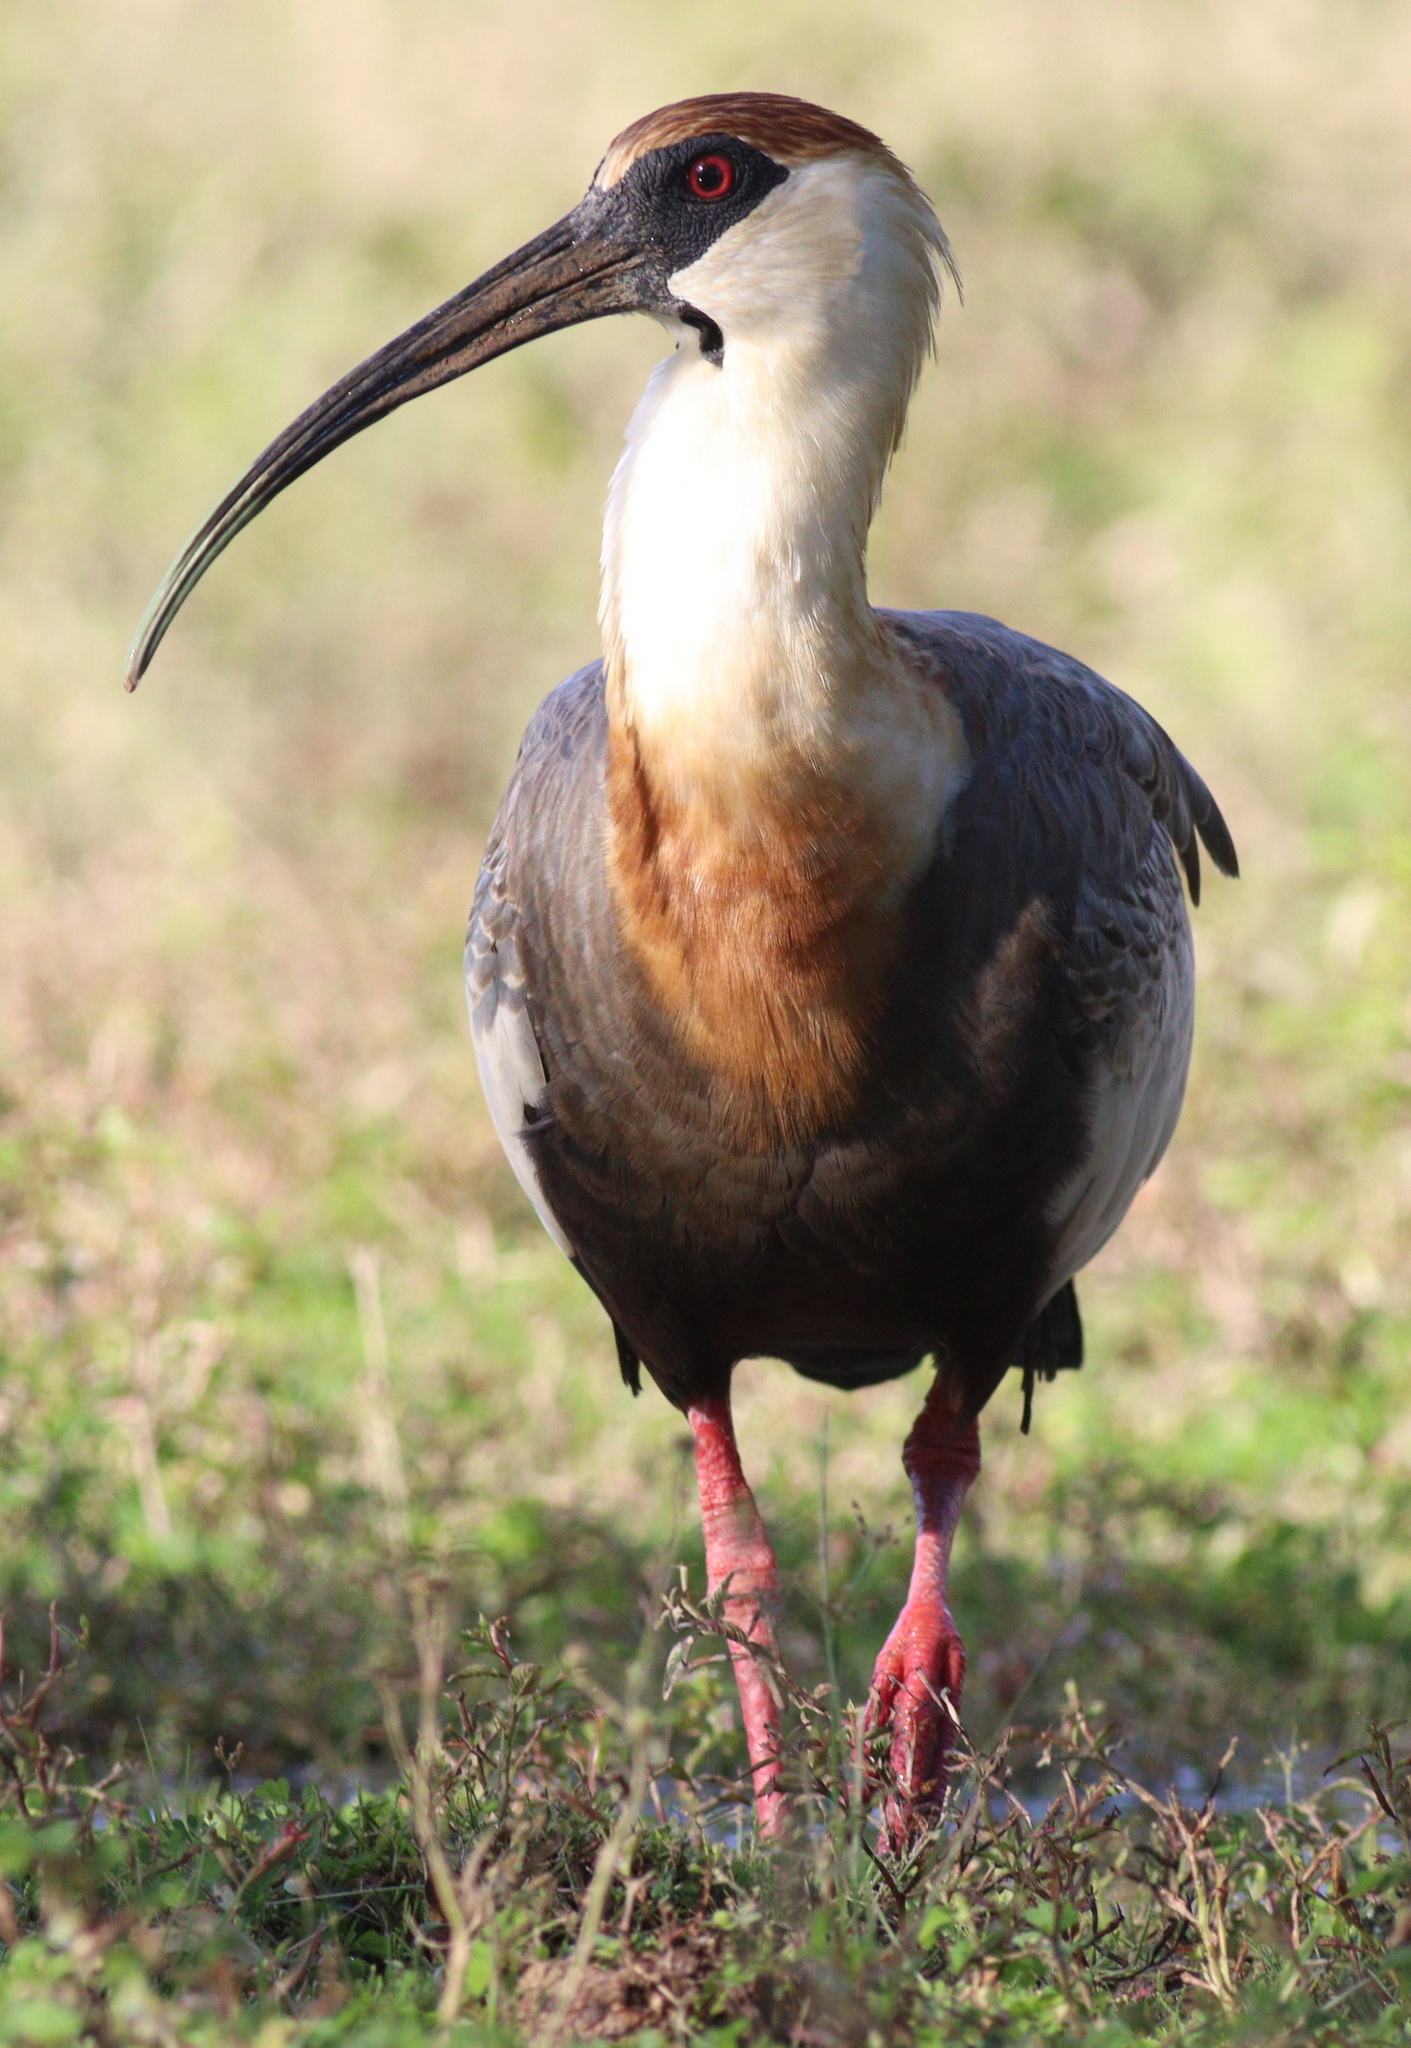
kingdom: Animalia
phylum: Chordata
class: Aves
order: Pelecaniformes
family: Threskiornithidae
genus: Theristicus
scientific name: Theristicus caudatus
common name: Buff-necked ibis
